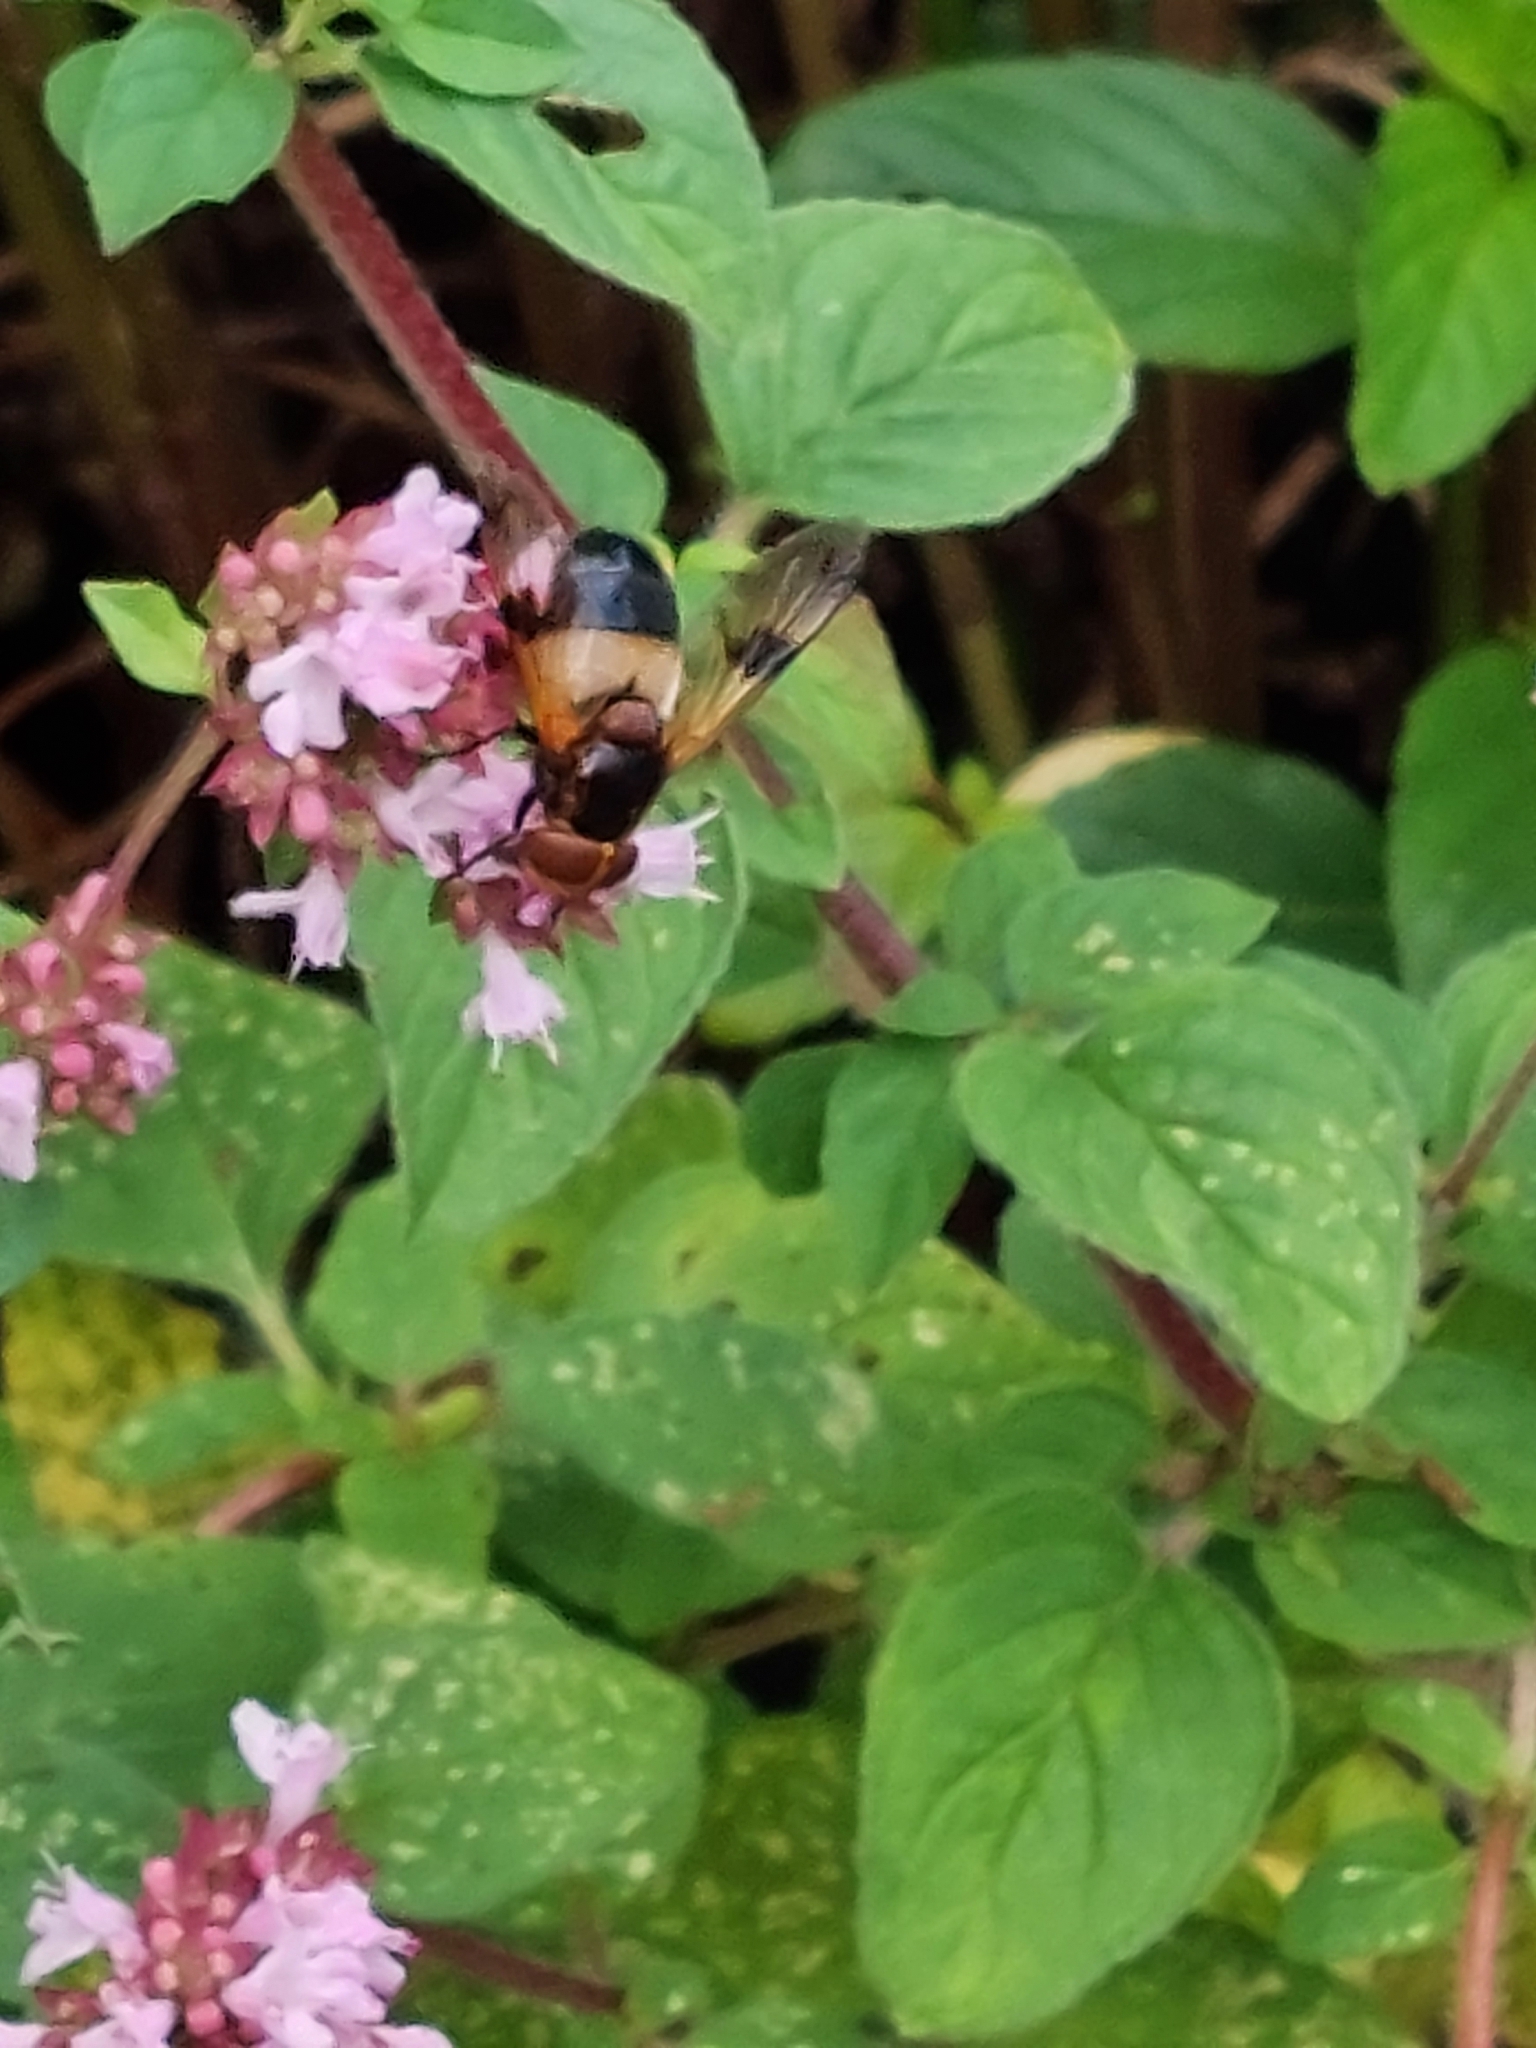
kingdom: Animalia
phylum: Arthropoda
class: Insecta
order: Diptera
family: Syrphidae
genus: Volucella
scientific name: Volucella pellucens
